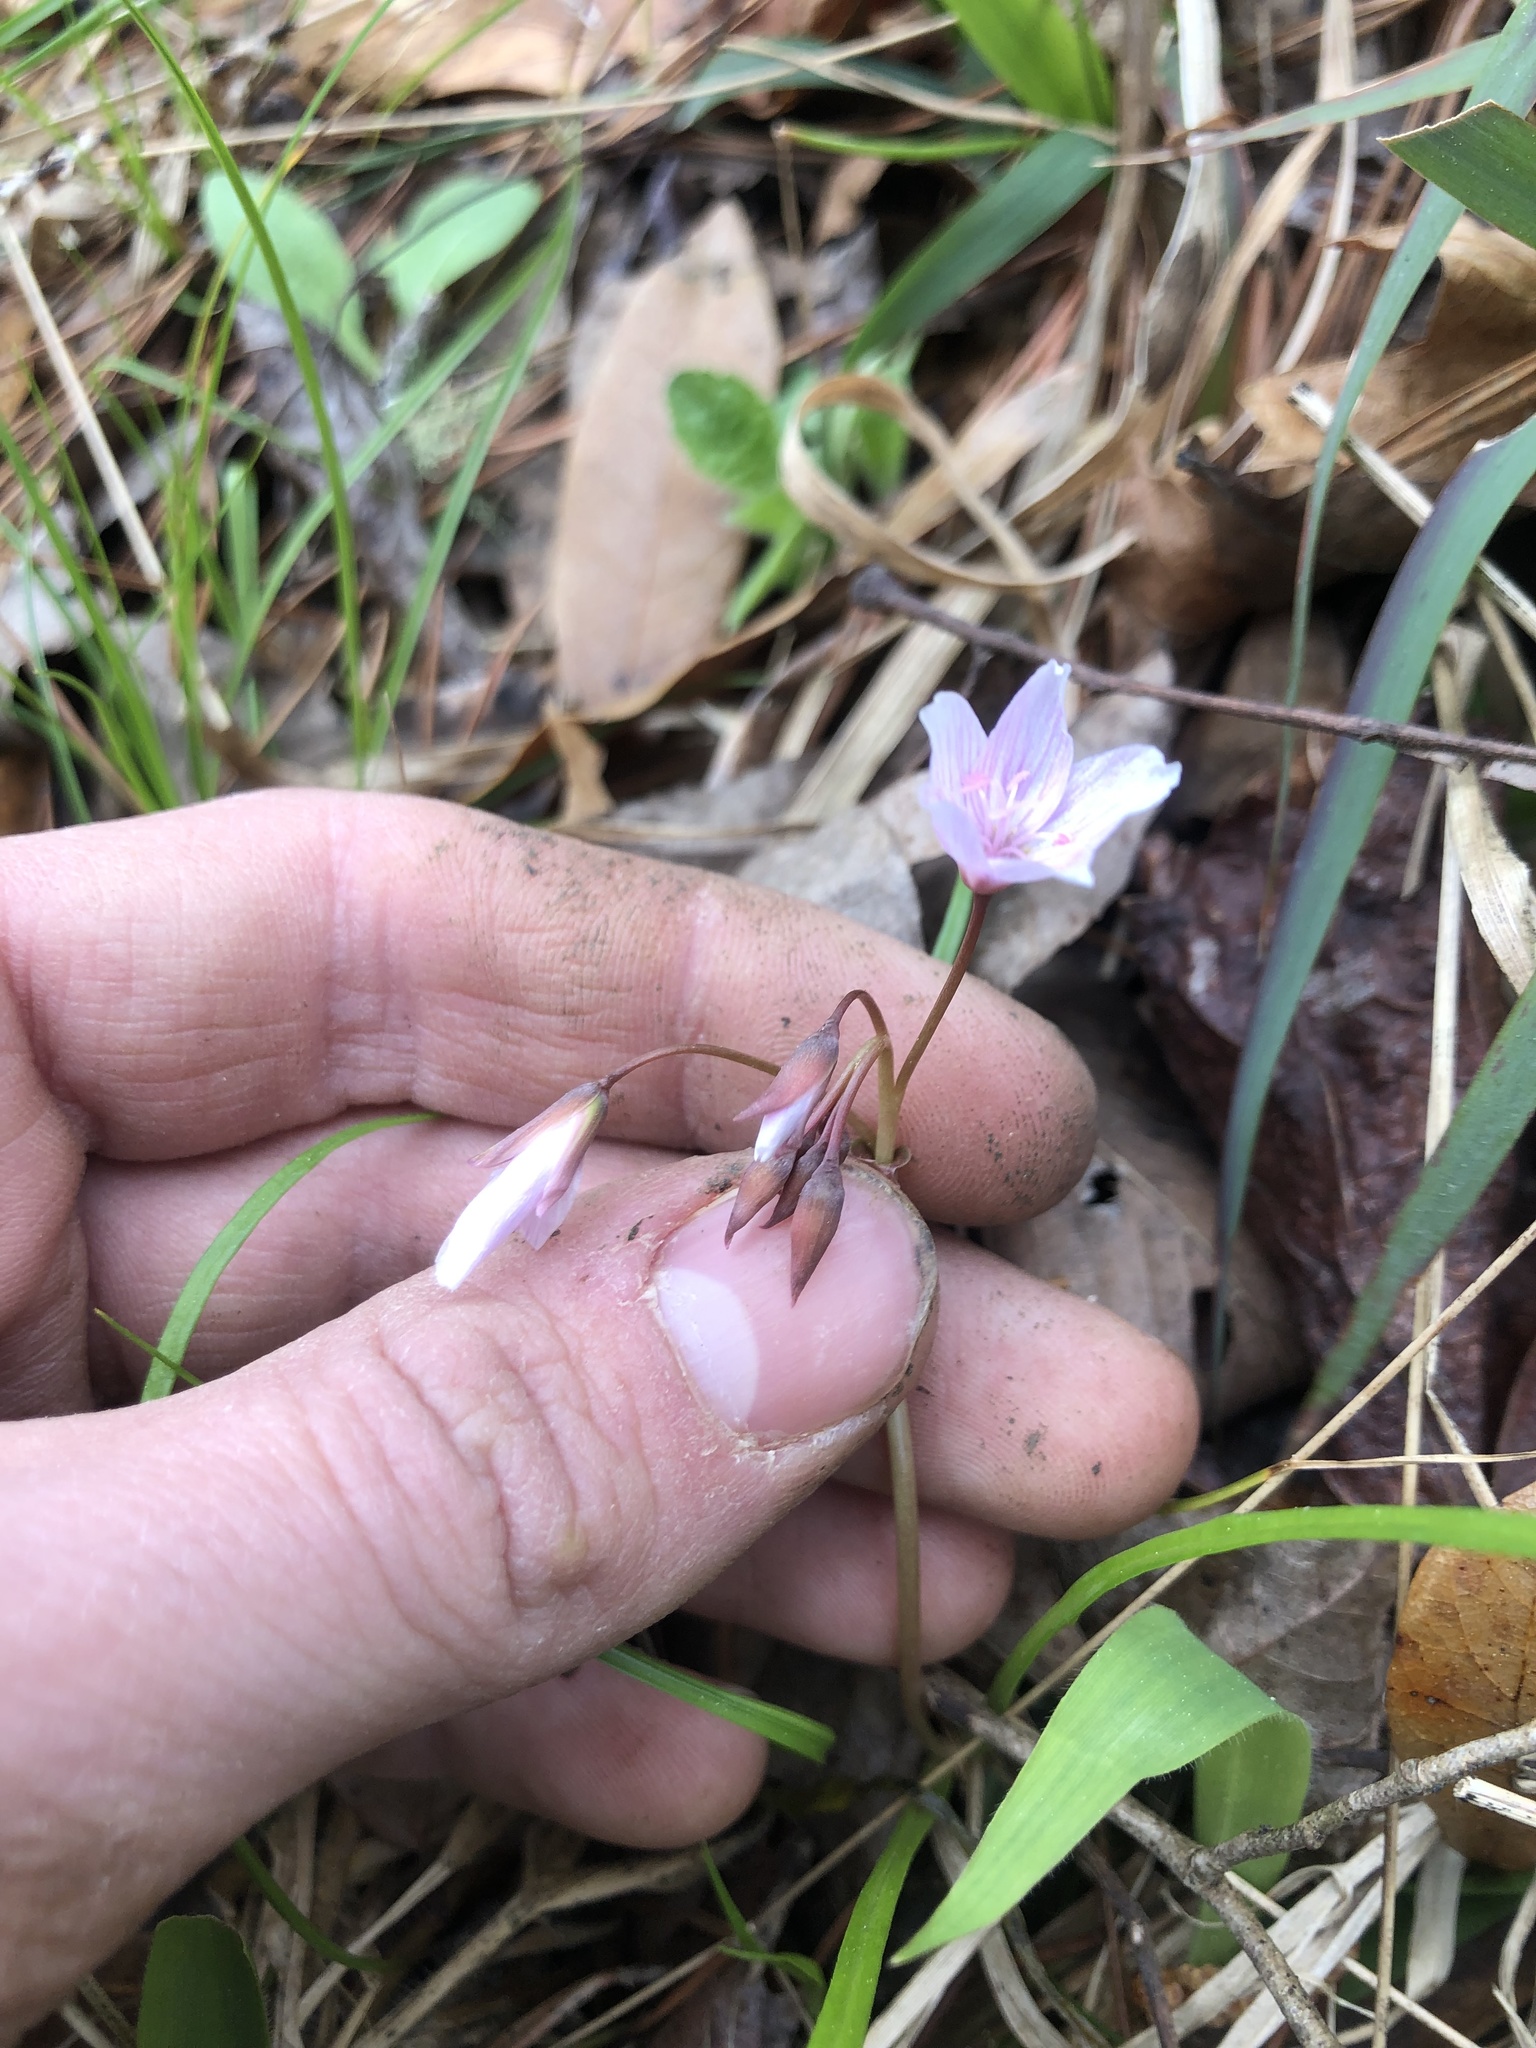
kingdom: Plantae
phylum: Tracheophyta
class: Magnoliopsida
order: Caryophyllales
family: Montiaceae
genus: Claytonia
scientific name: Claytonia virginica
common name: Virginia springbeauty
